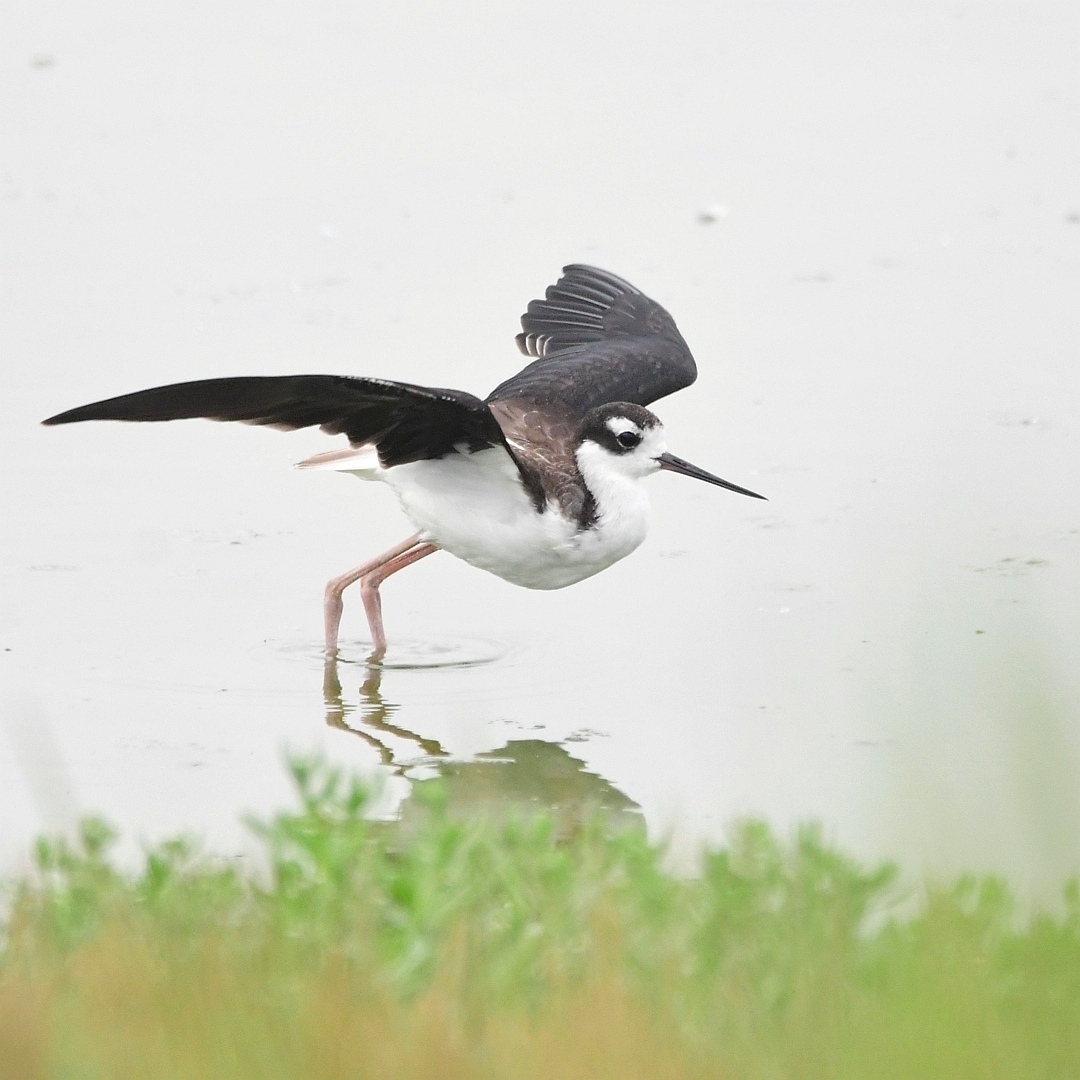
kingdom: Animalia
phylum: Chordata
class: Aves
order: Charadriiformes
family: Recurvirostridae
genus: Himantopus
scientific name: Himantopus mexicanus
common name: Black-necked stilt
